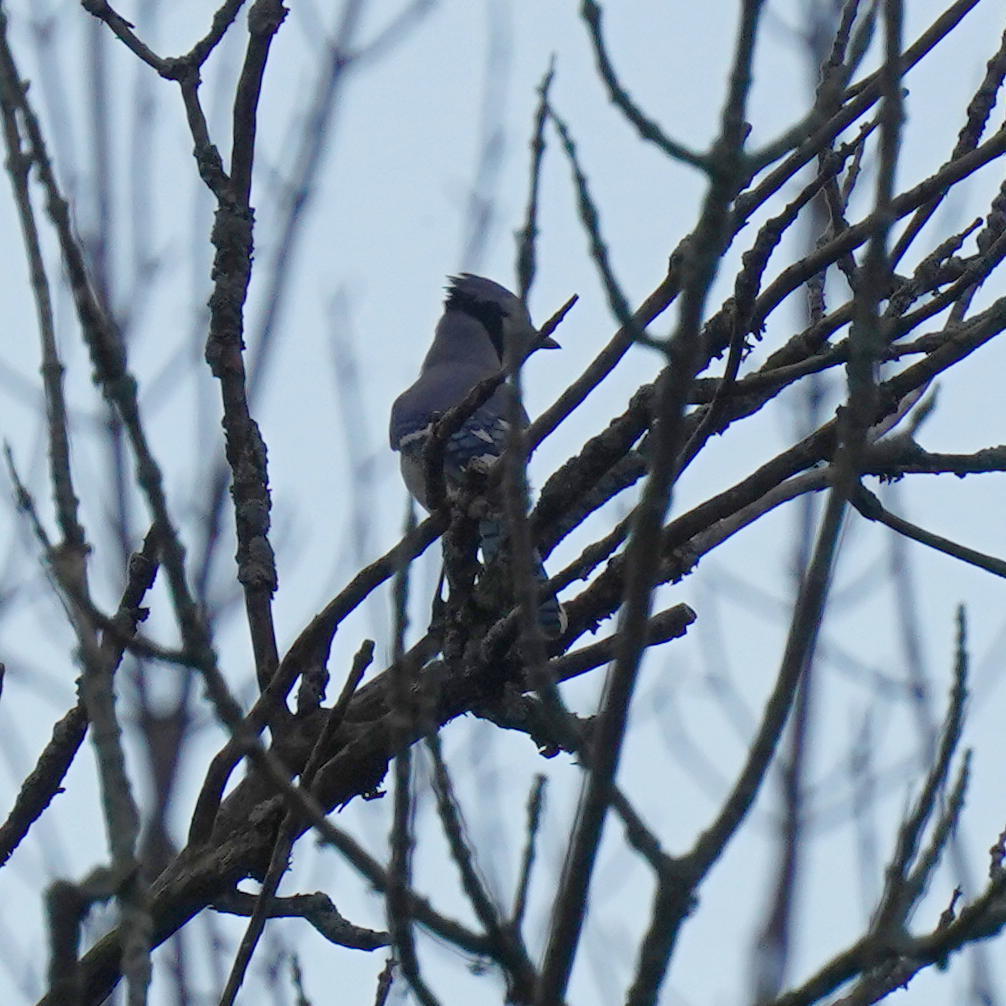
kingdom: Animalia
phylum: Chordata
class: Aves
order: Passeriformes
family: Corvidae
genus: Cyanocitta
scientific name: Cyanocitta cristata
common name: Blue jay
